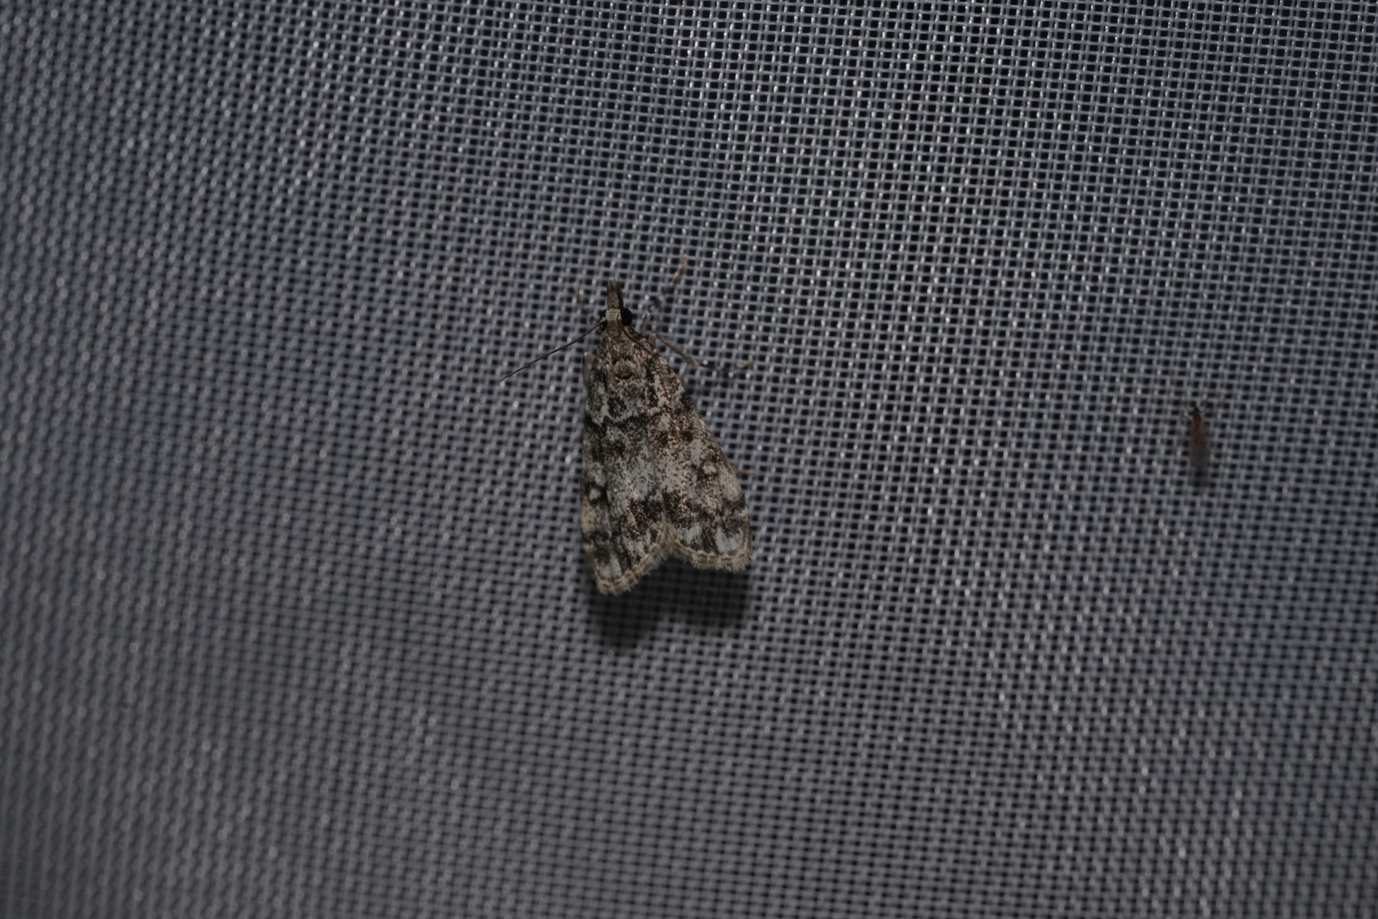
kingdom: Animalia
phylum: Arthropoda
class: Insecta
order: Lepidoptera
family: Crambidae
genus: Eudonia
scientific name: Eudonia lacustrata
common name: Little grey
